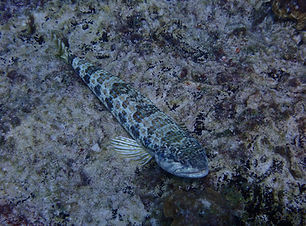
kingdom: Animalia
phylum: Chordata
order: Aulopiformes
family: Synodontidae
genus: Synodus
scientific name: Synodus intermedius
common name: Sand diver
